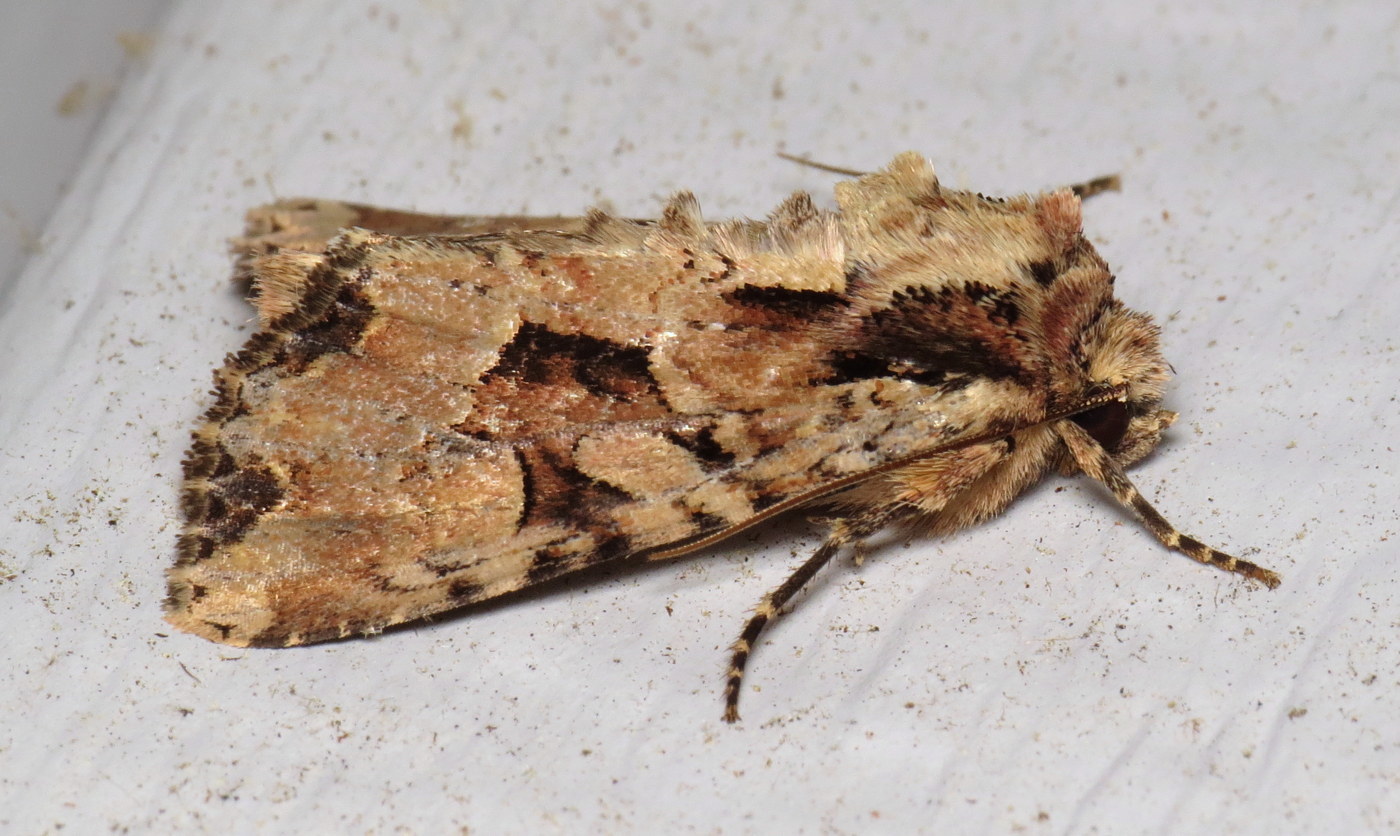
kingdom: Animalia
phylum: Arthropoda
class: Insecta
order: Lepidoptera
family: Noctuidae
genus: Apamea
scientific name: Apamea indocilis
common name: Ignorant apamea moth
